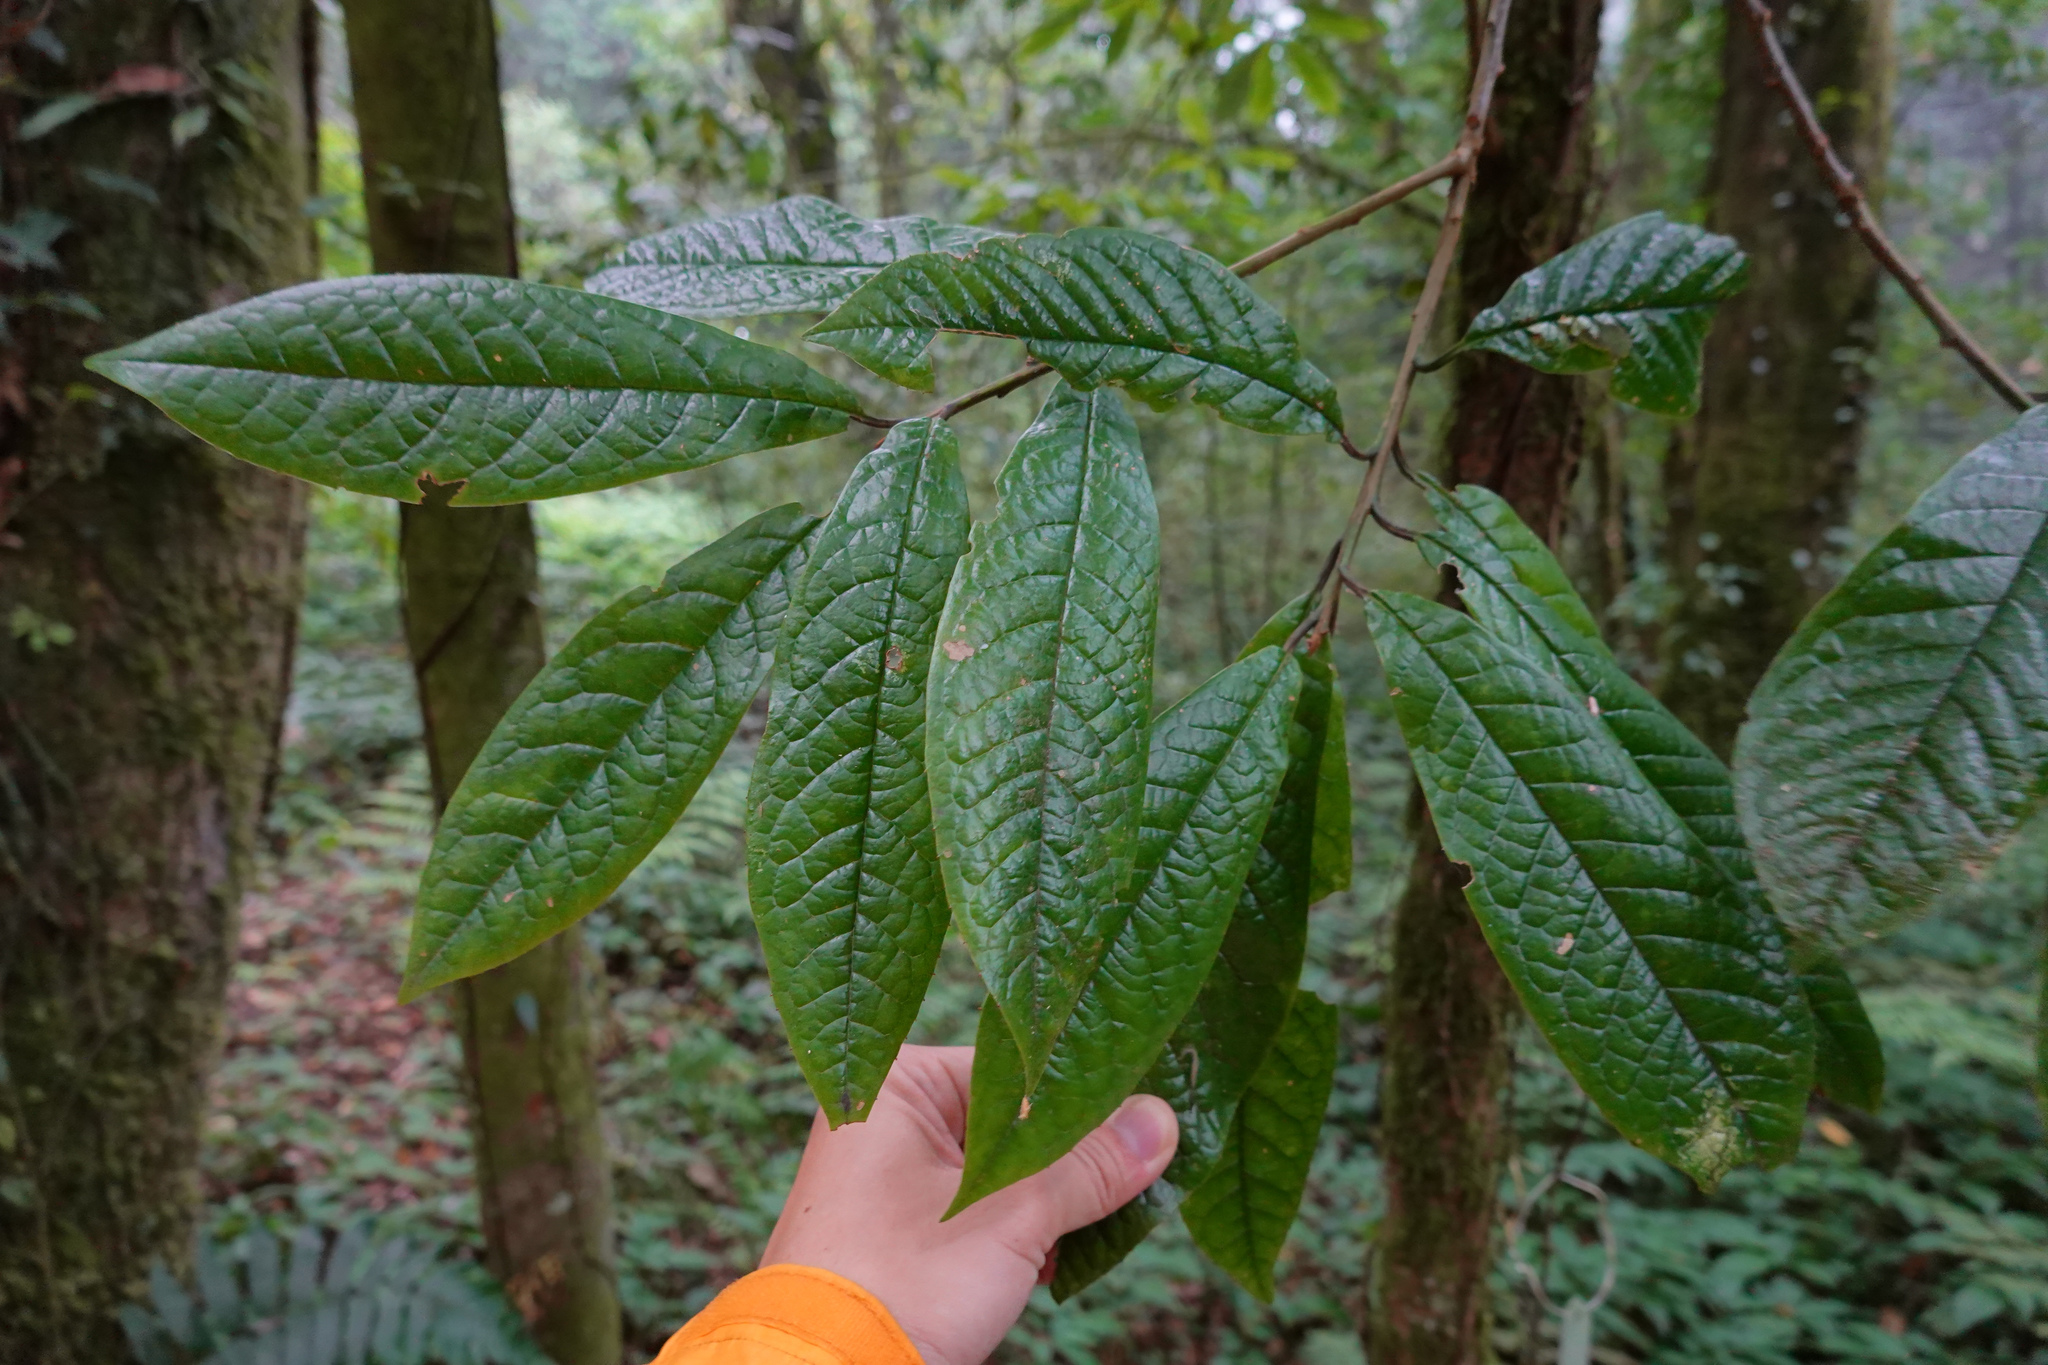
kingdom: Plantae
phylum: Tracheophyta
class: Magnoliopsida
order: Ericales
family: Symplocaceae
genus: Symplocos
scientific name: Symplocos glauca
